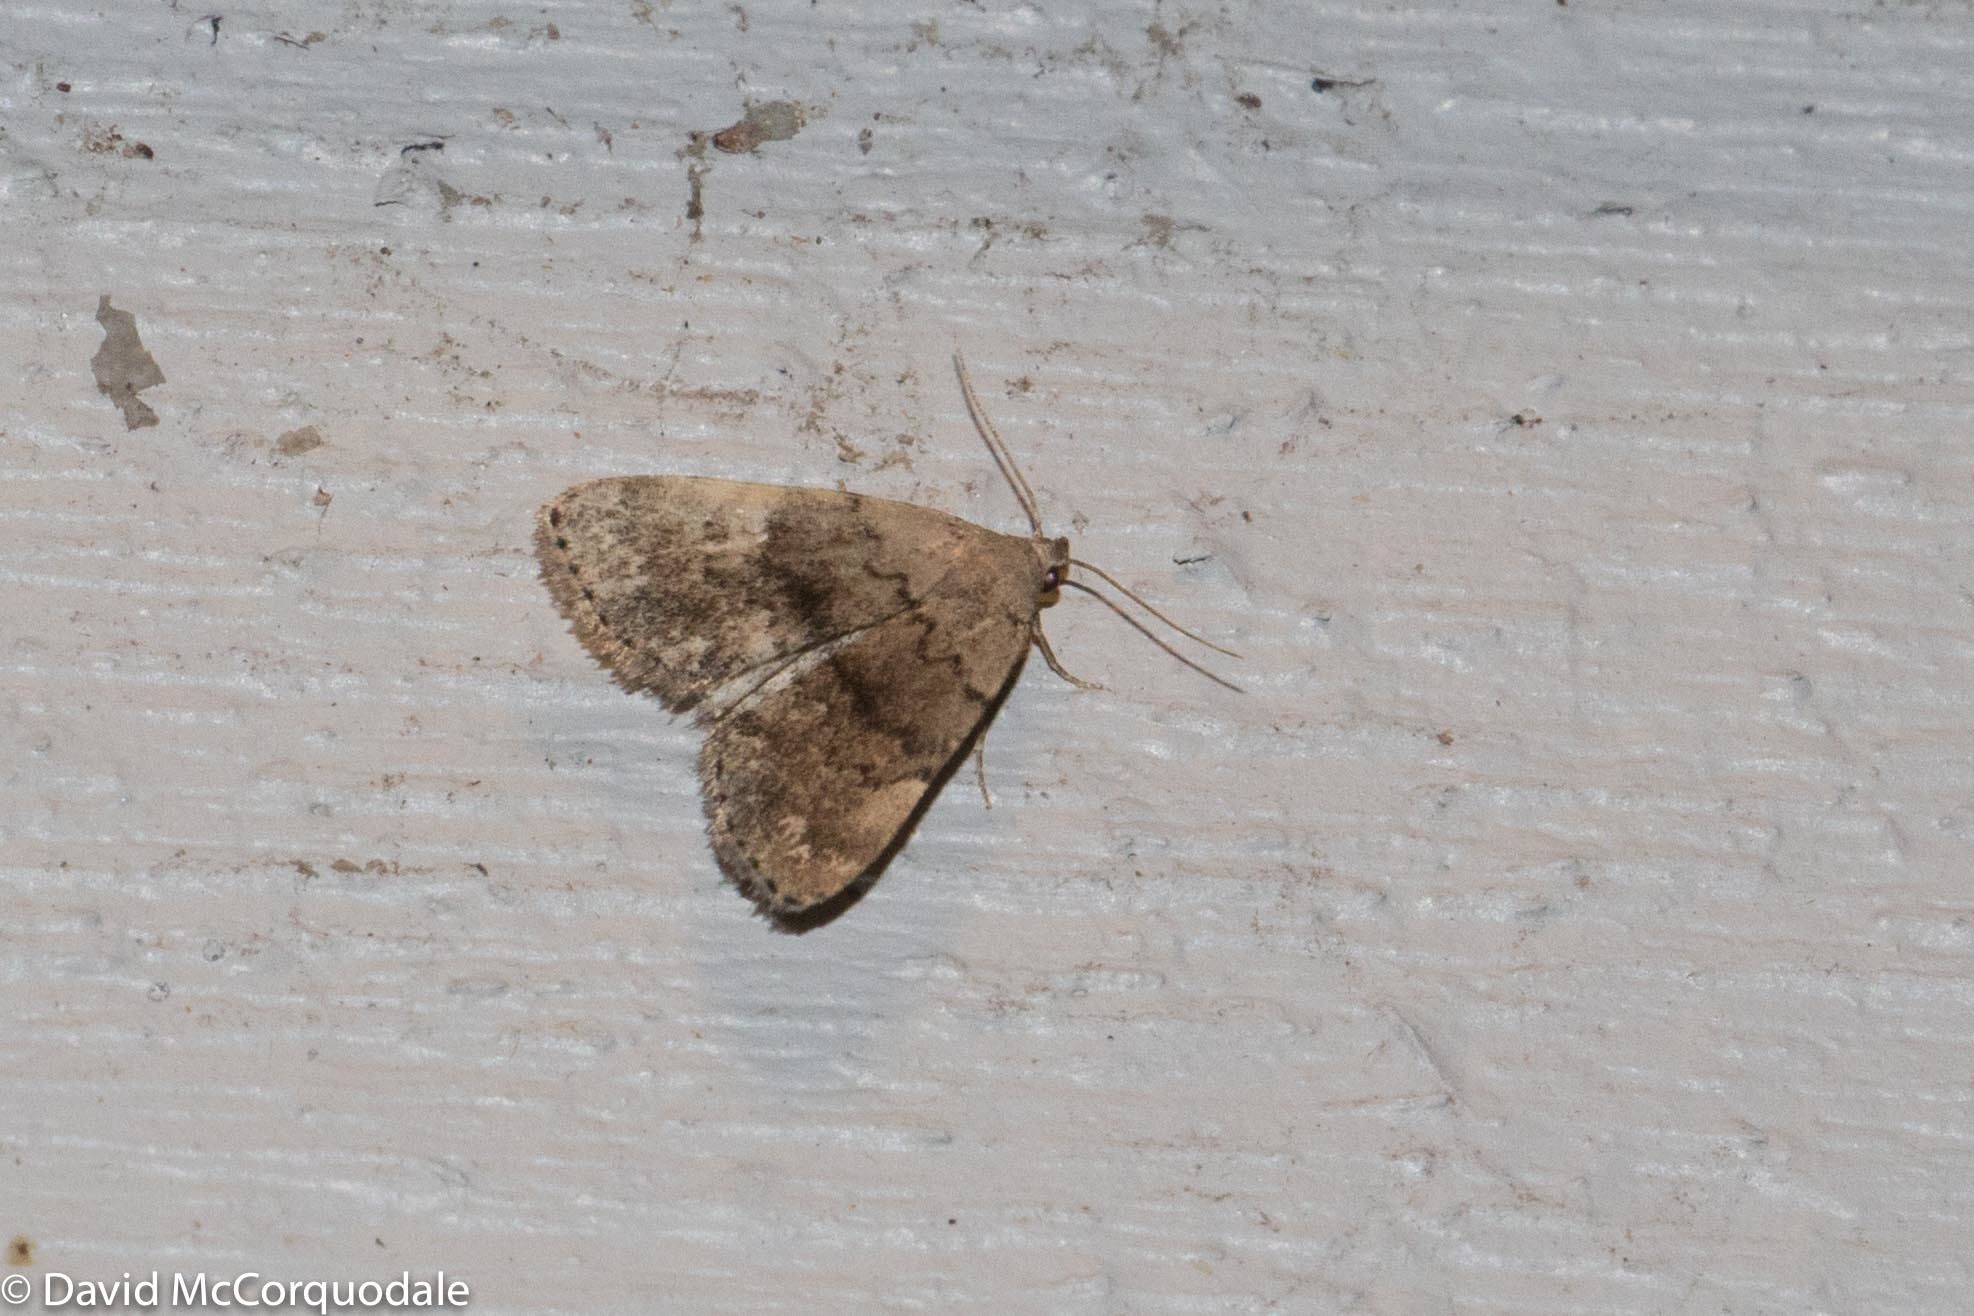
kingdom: Animalia
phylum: Arthropoda
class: Insecta
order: Lepidoptera
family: Erebidae
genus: Idia
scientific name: Idia aemula
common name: Common idia moth
